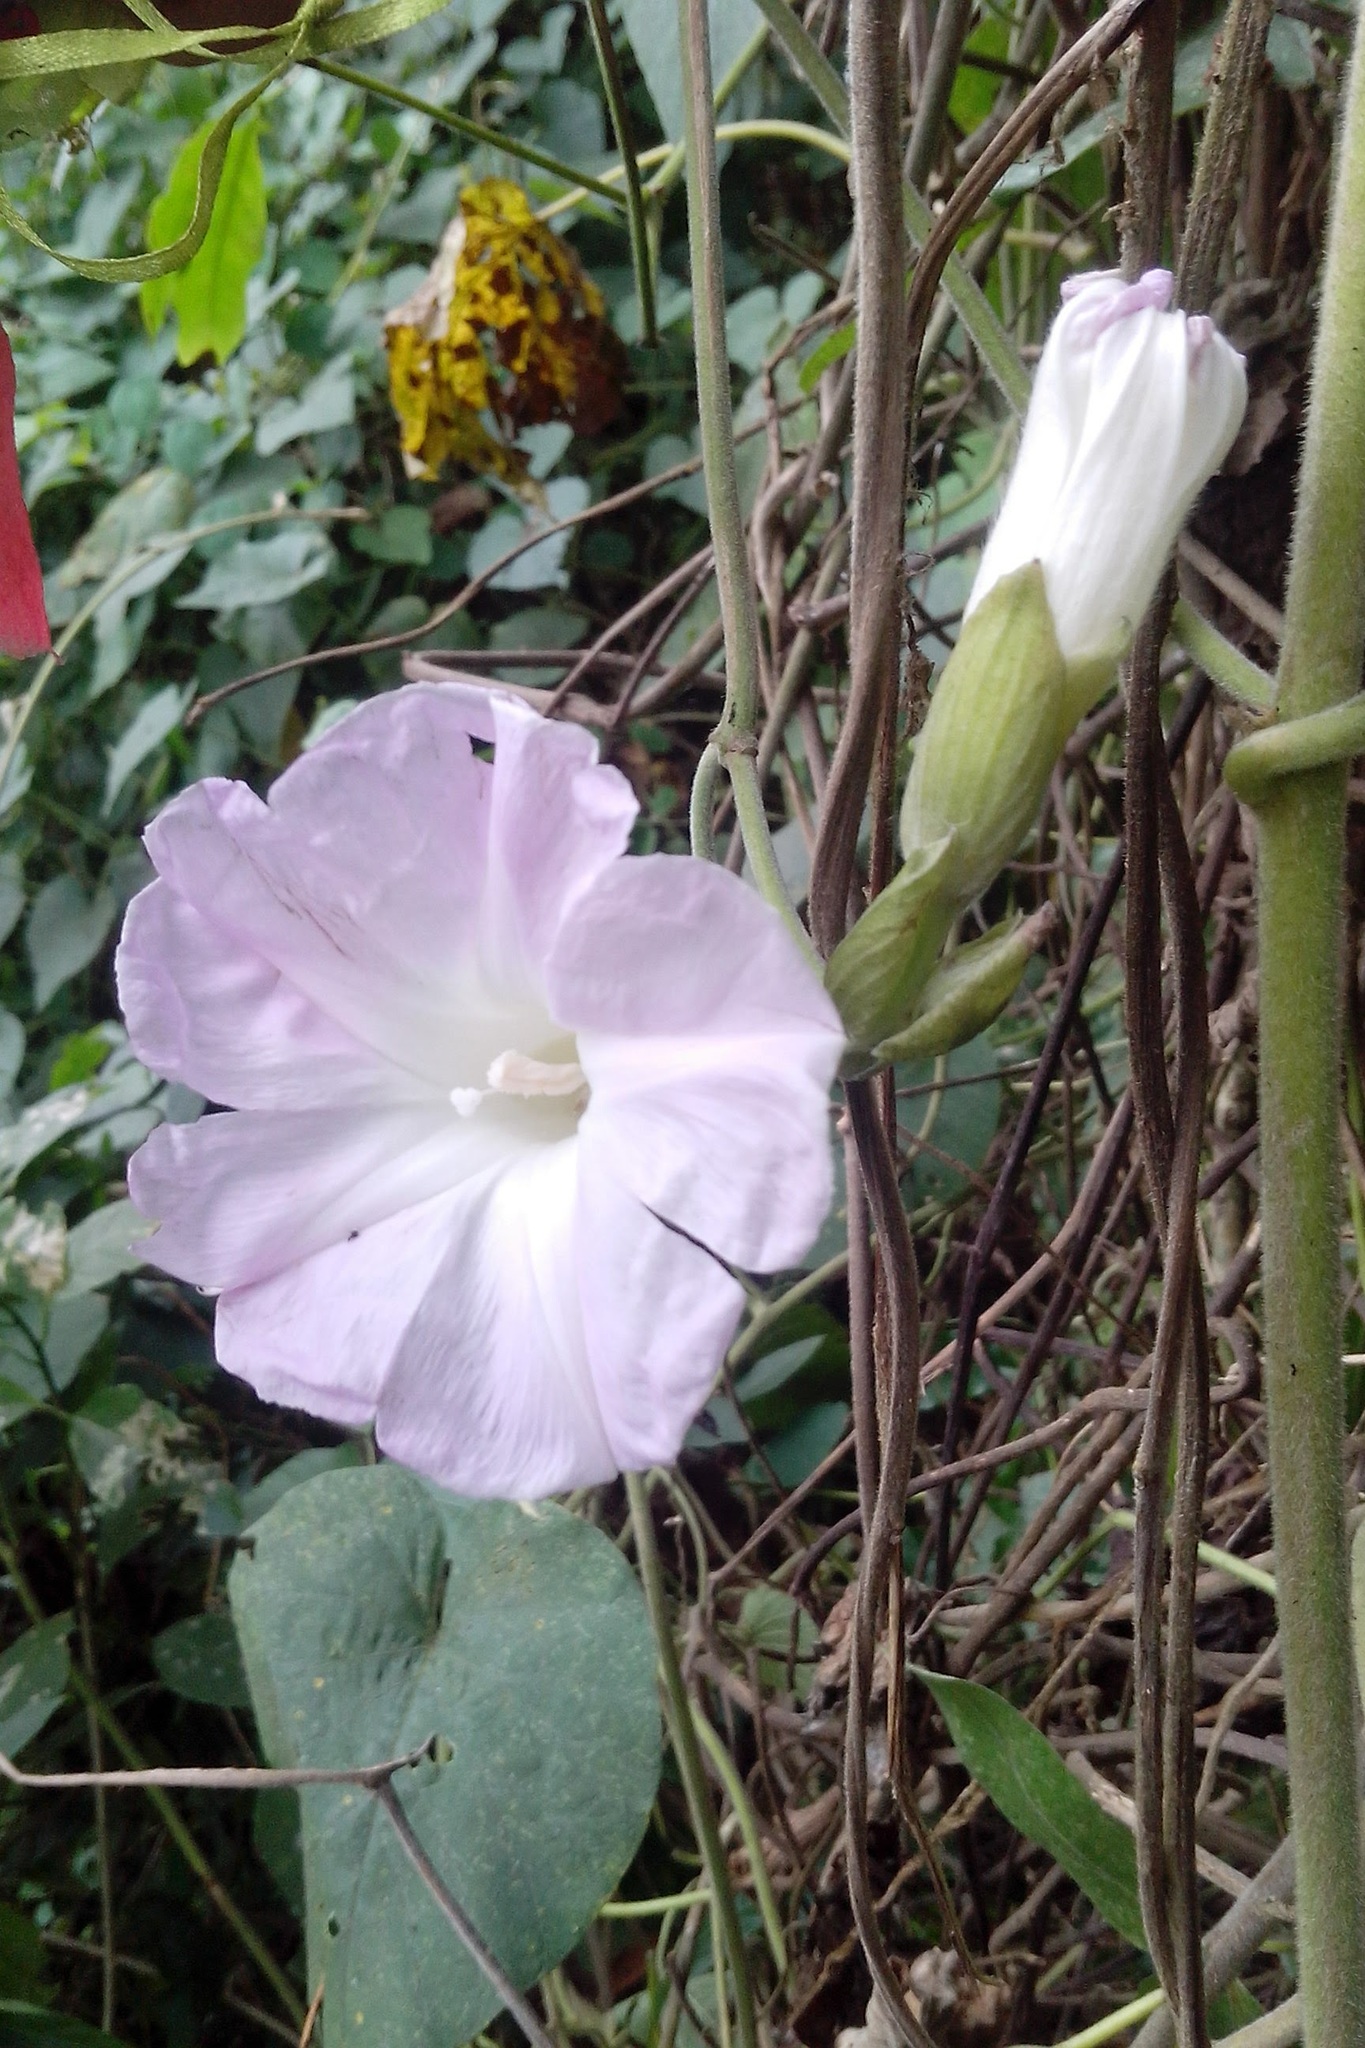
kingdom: Plantae
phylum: Tracheophyta
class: Magnoliopsida
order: Solanales
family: Convolvulaceae
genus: Ipomoea
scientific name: Ipomoea mairetii
